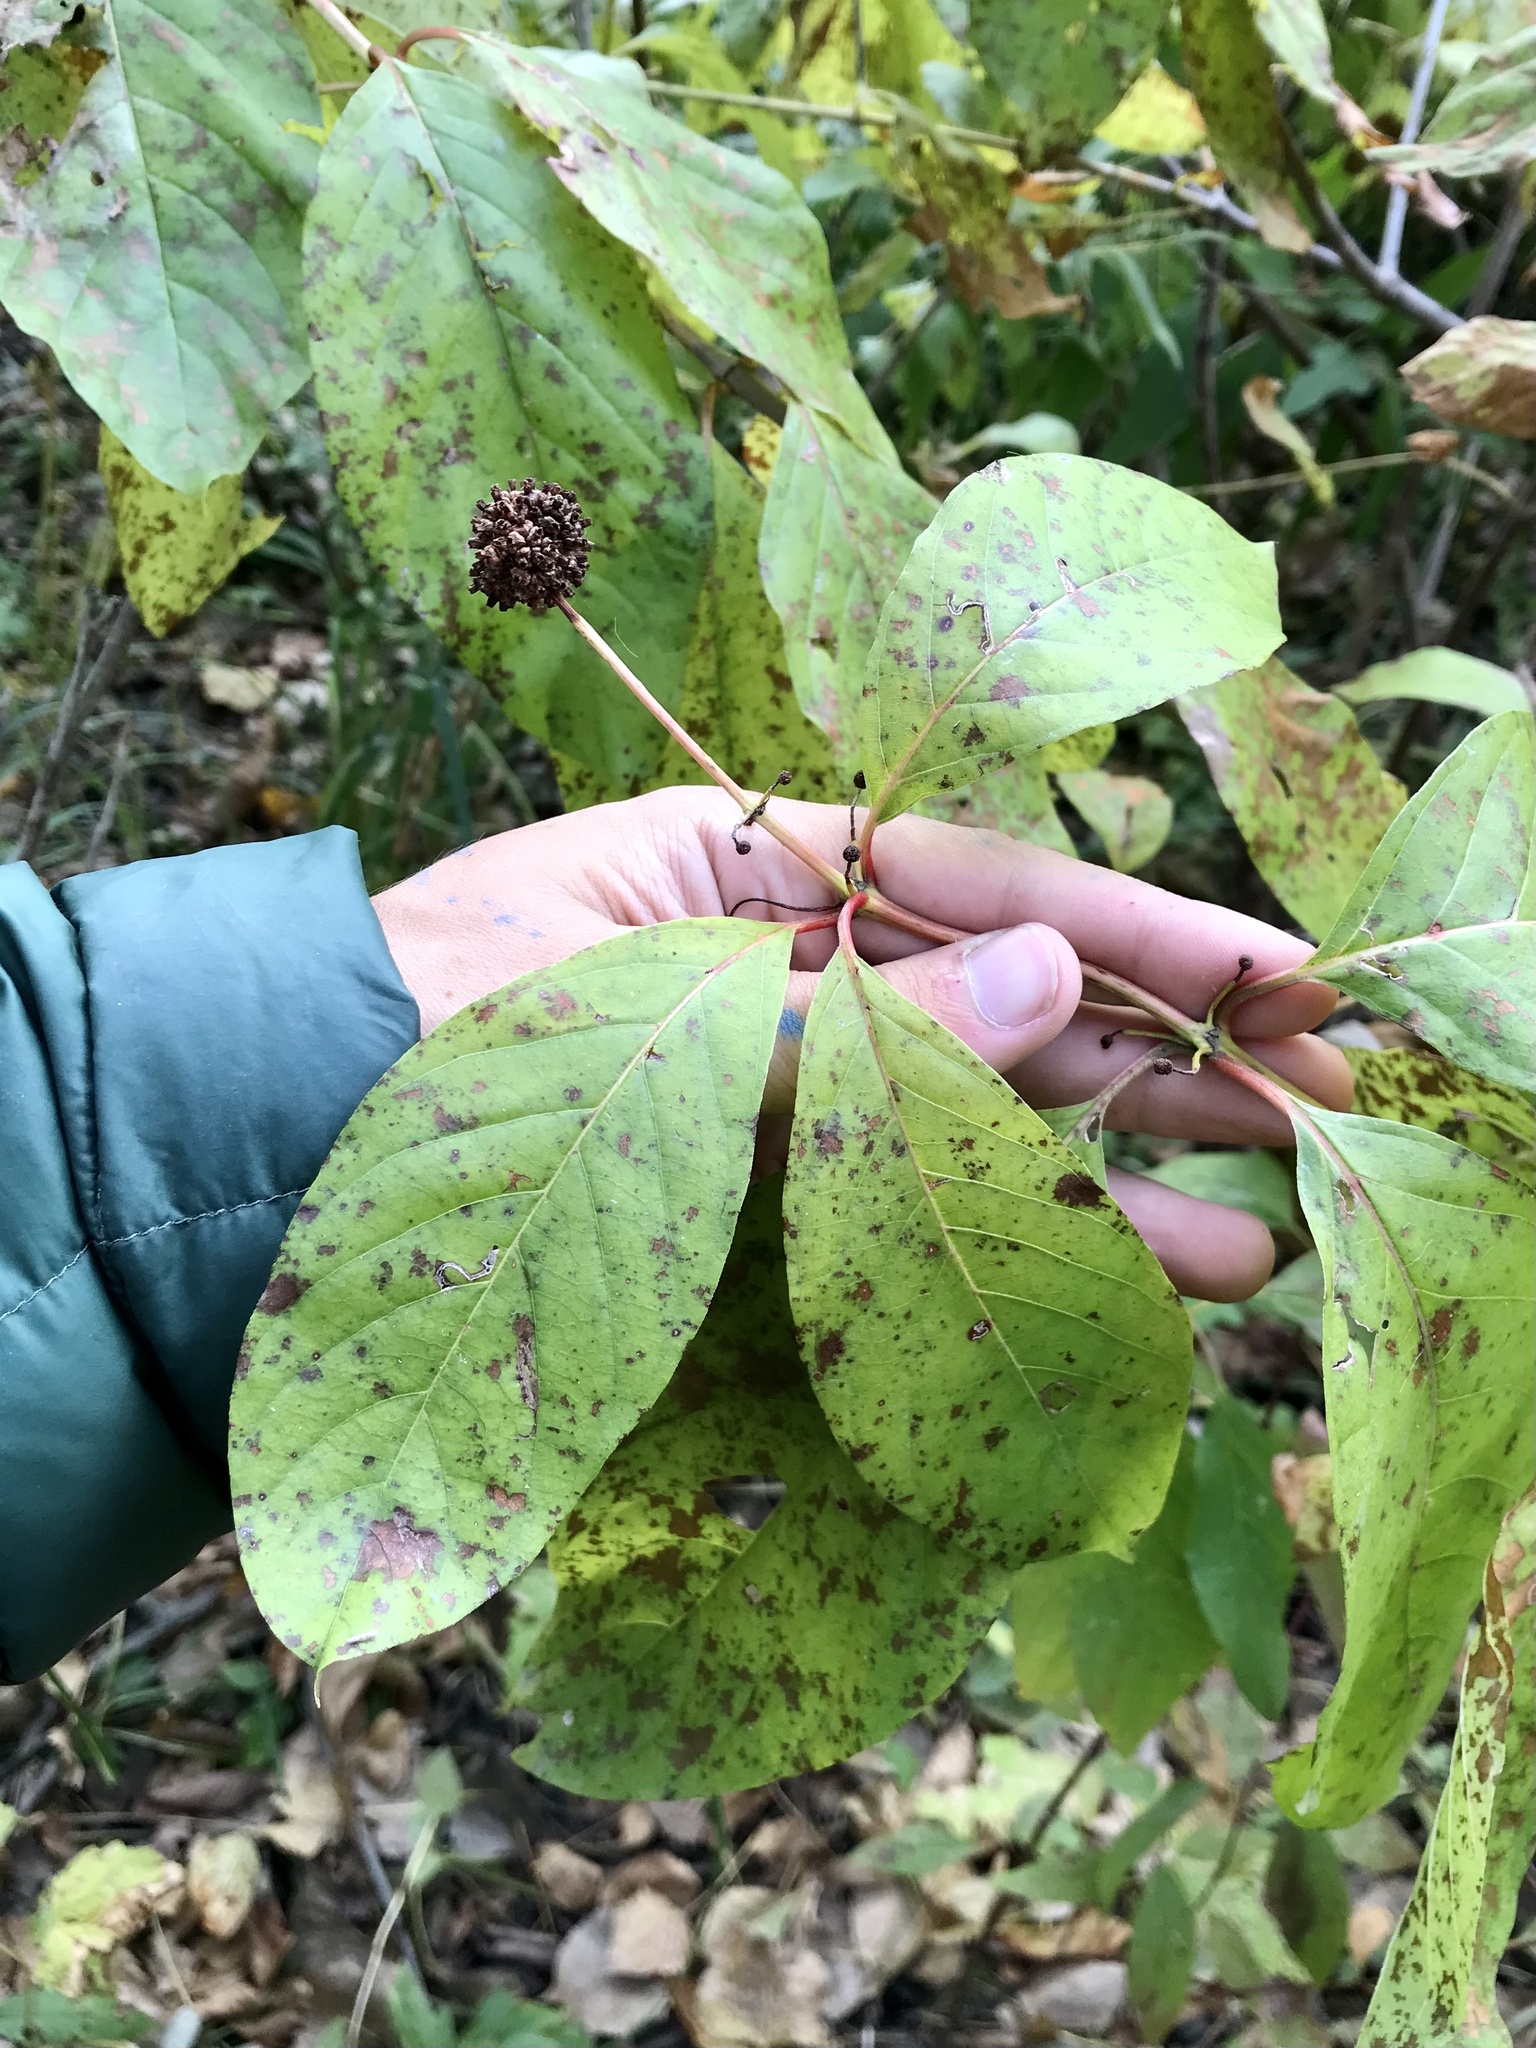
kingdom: Plantae
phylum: Tracheophyta
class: Magnoliopsida
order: Gentianales
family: Rubiaceae
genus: Cephalanthus
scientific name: Cephalanthus occidentalis
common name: Button-willow
